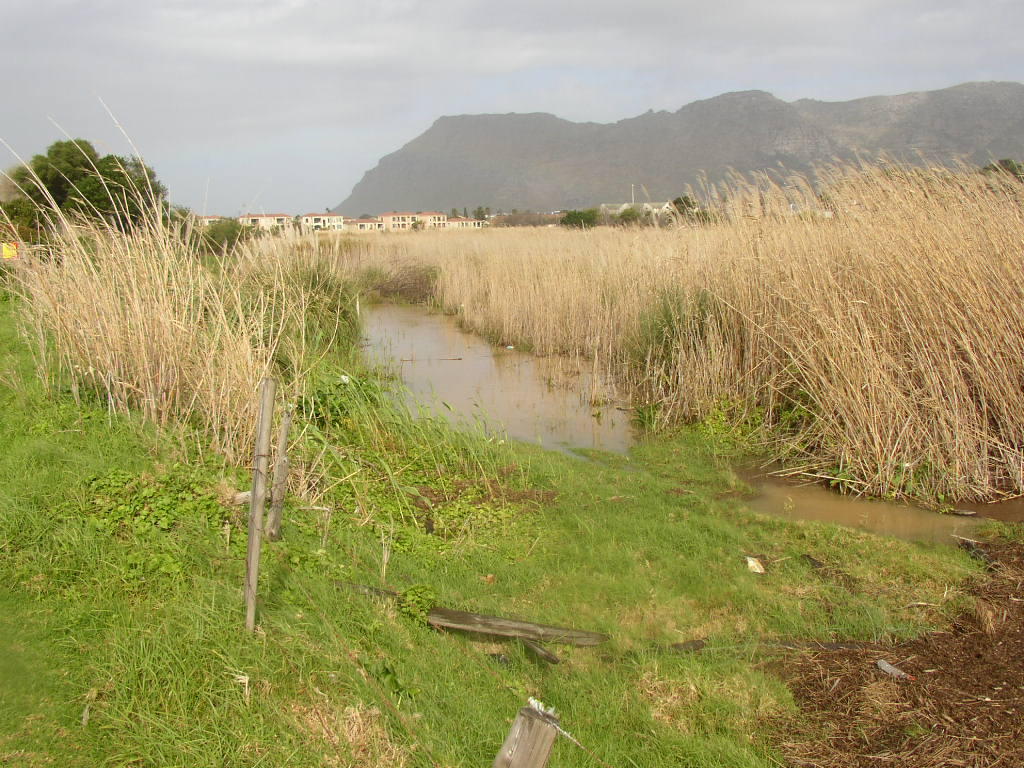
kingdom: Plantae
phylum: Tracheophyta
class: Liliopsida
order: Poales
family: Poaceae
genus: Phragmites
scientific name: Phragmites australis
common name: Common reed
